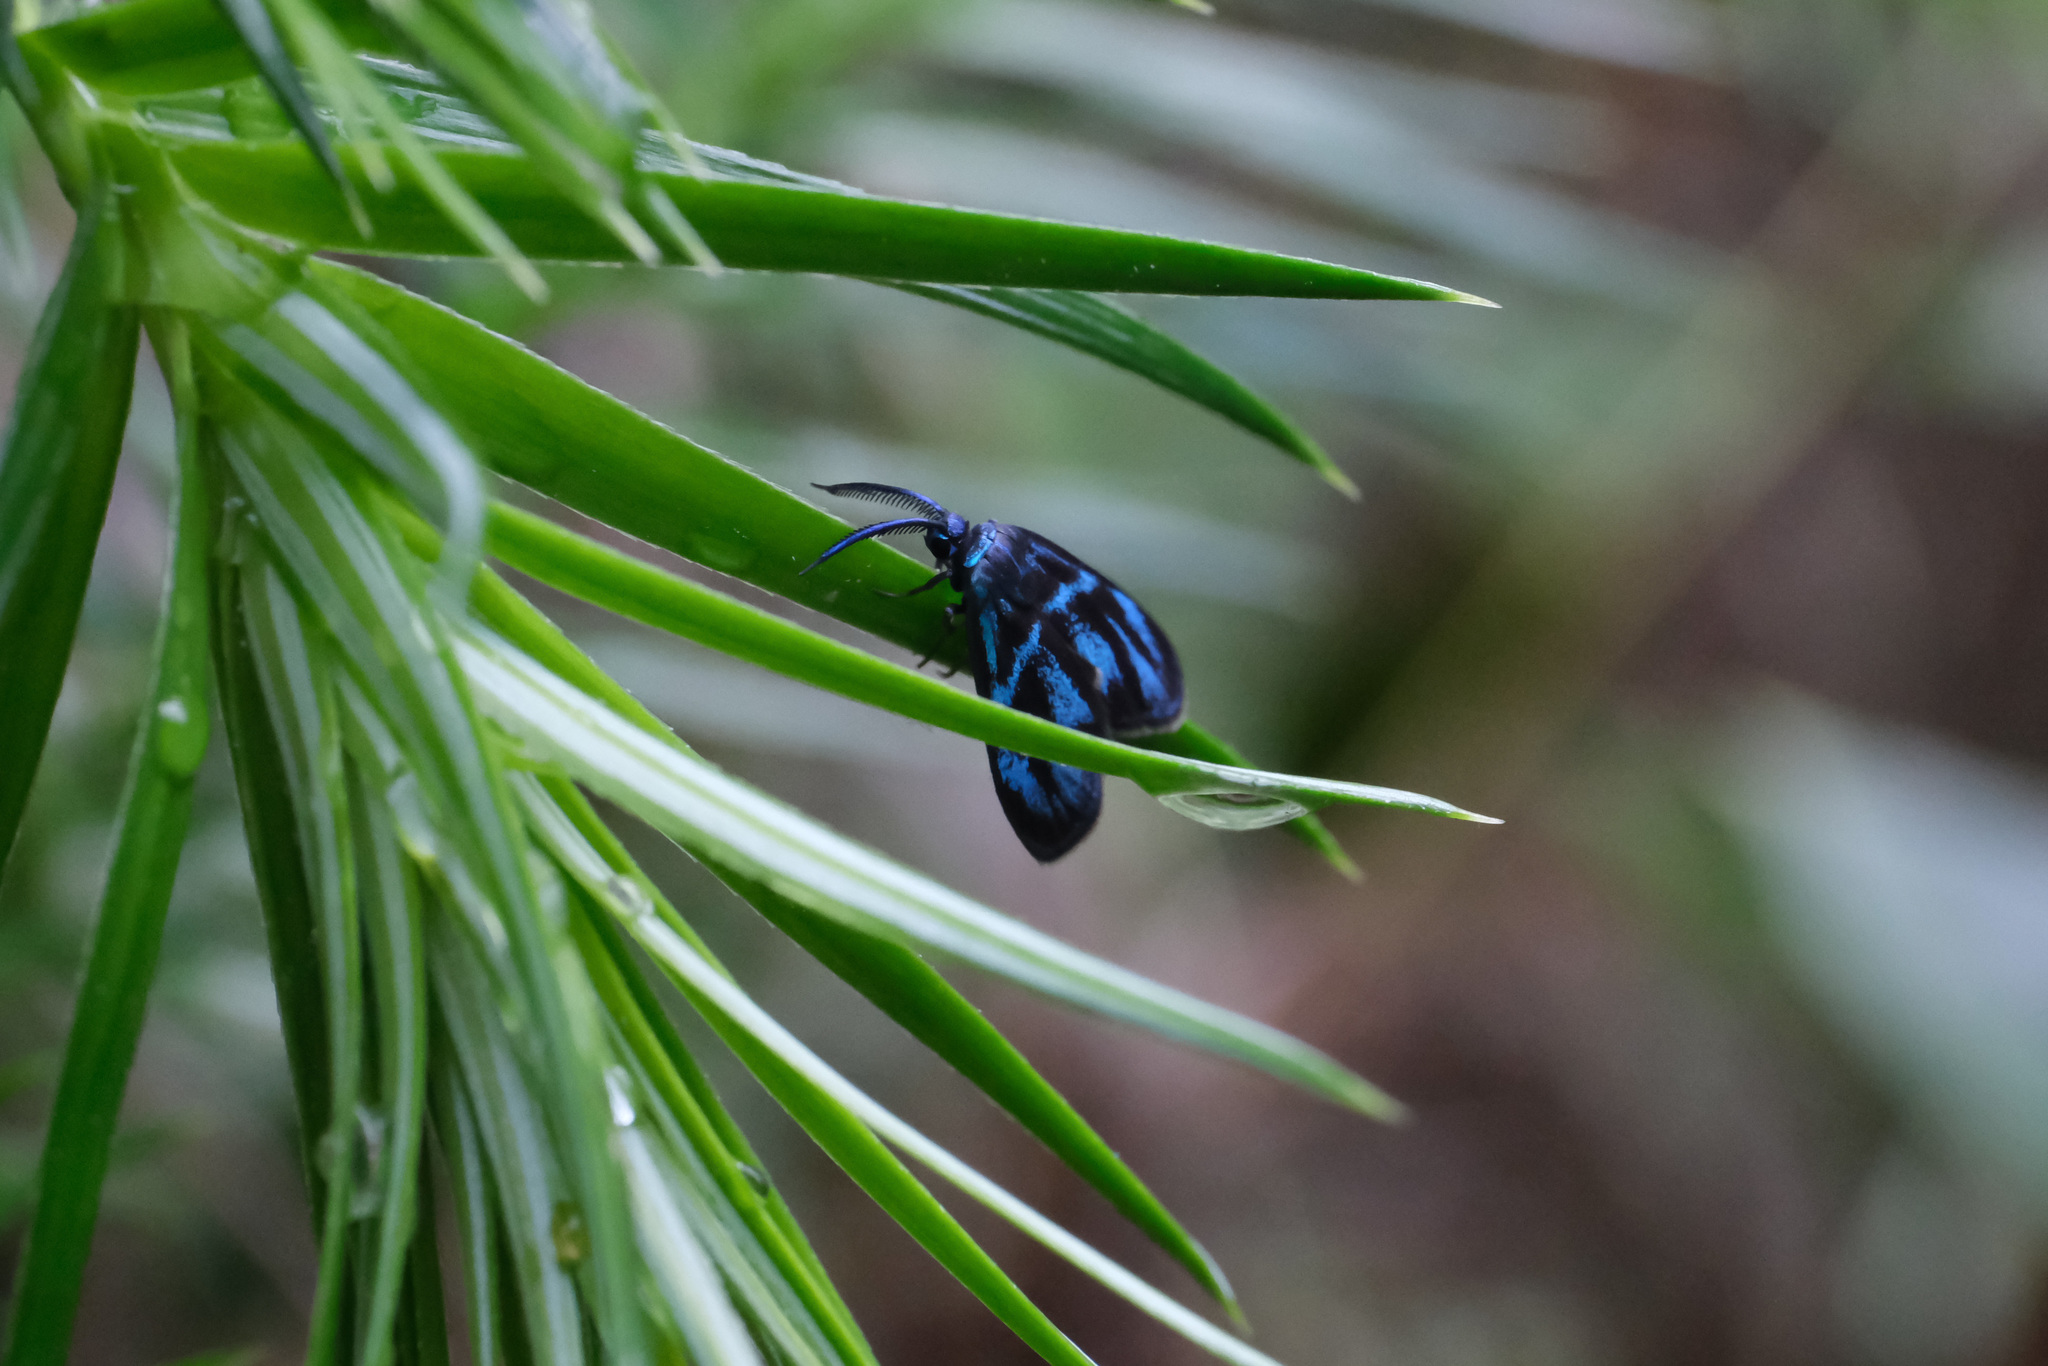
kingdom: Animalia
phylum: Arthropoda
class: Insecta
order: Lepidoptera
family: Zygaenidae
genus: Clelea
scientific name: Clelea sapphirina
